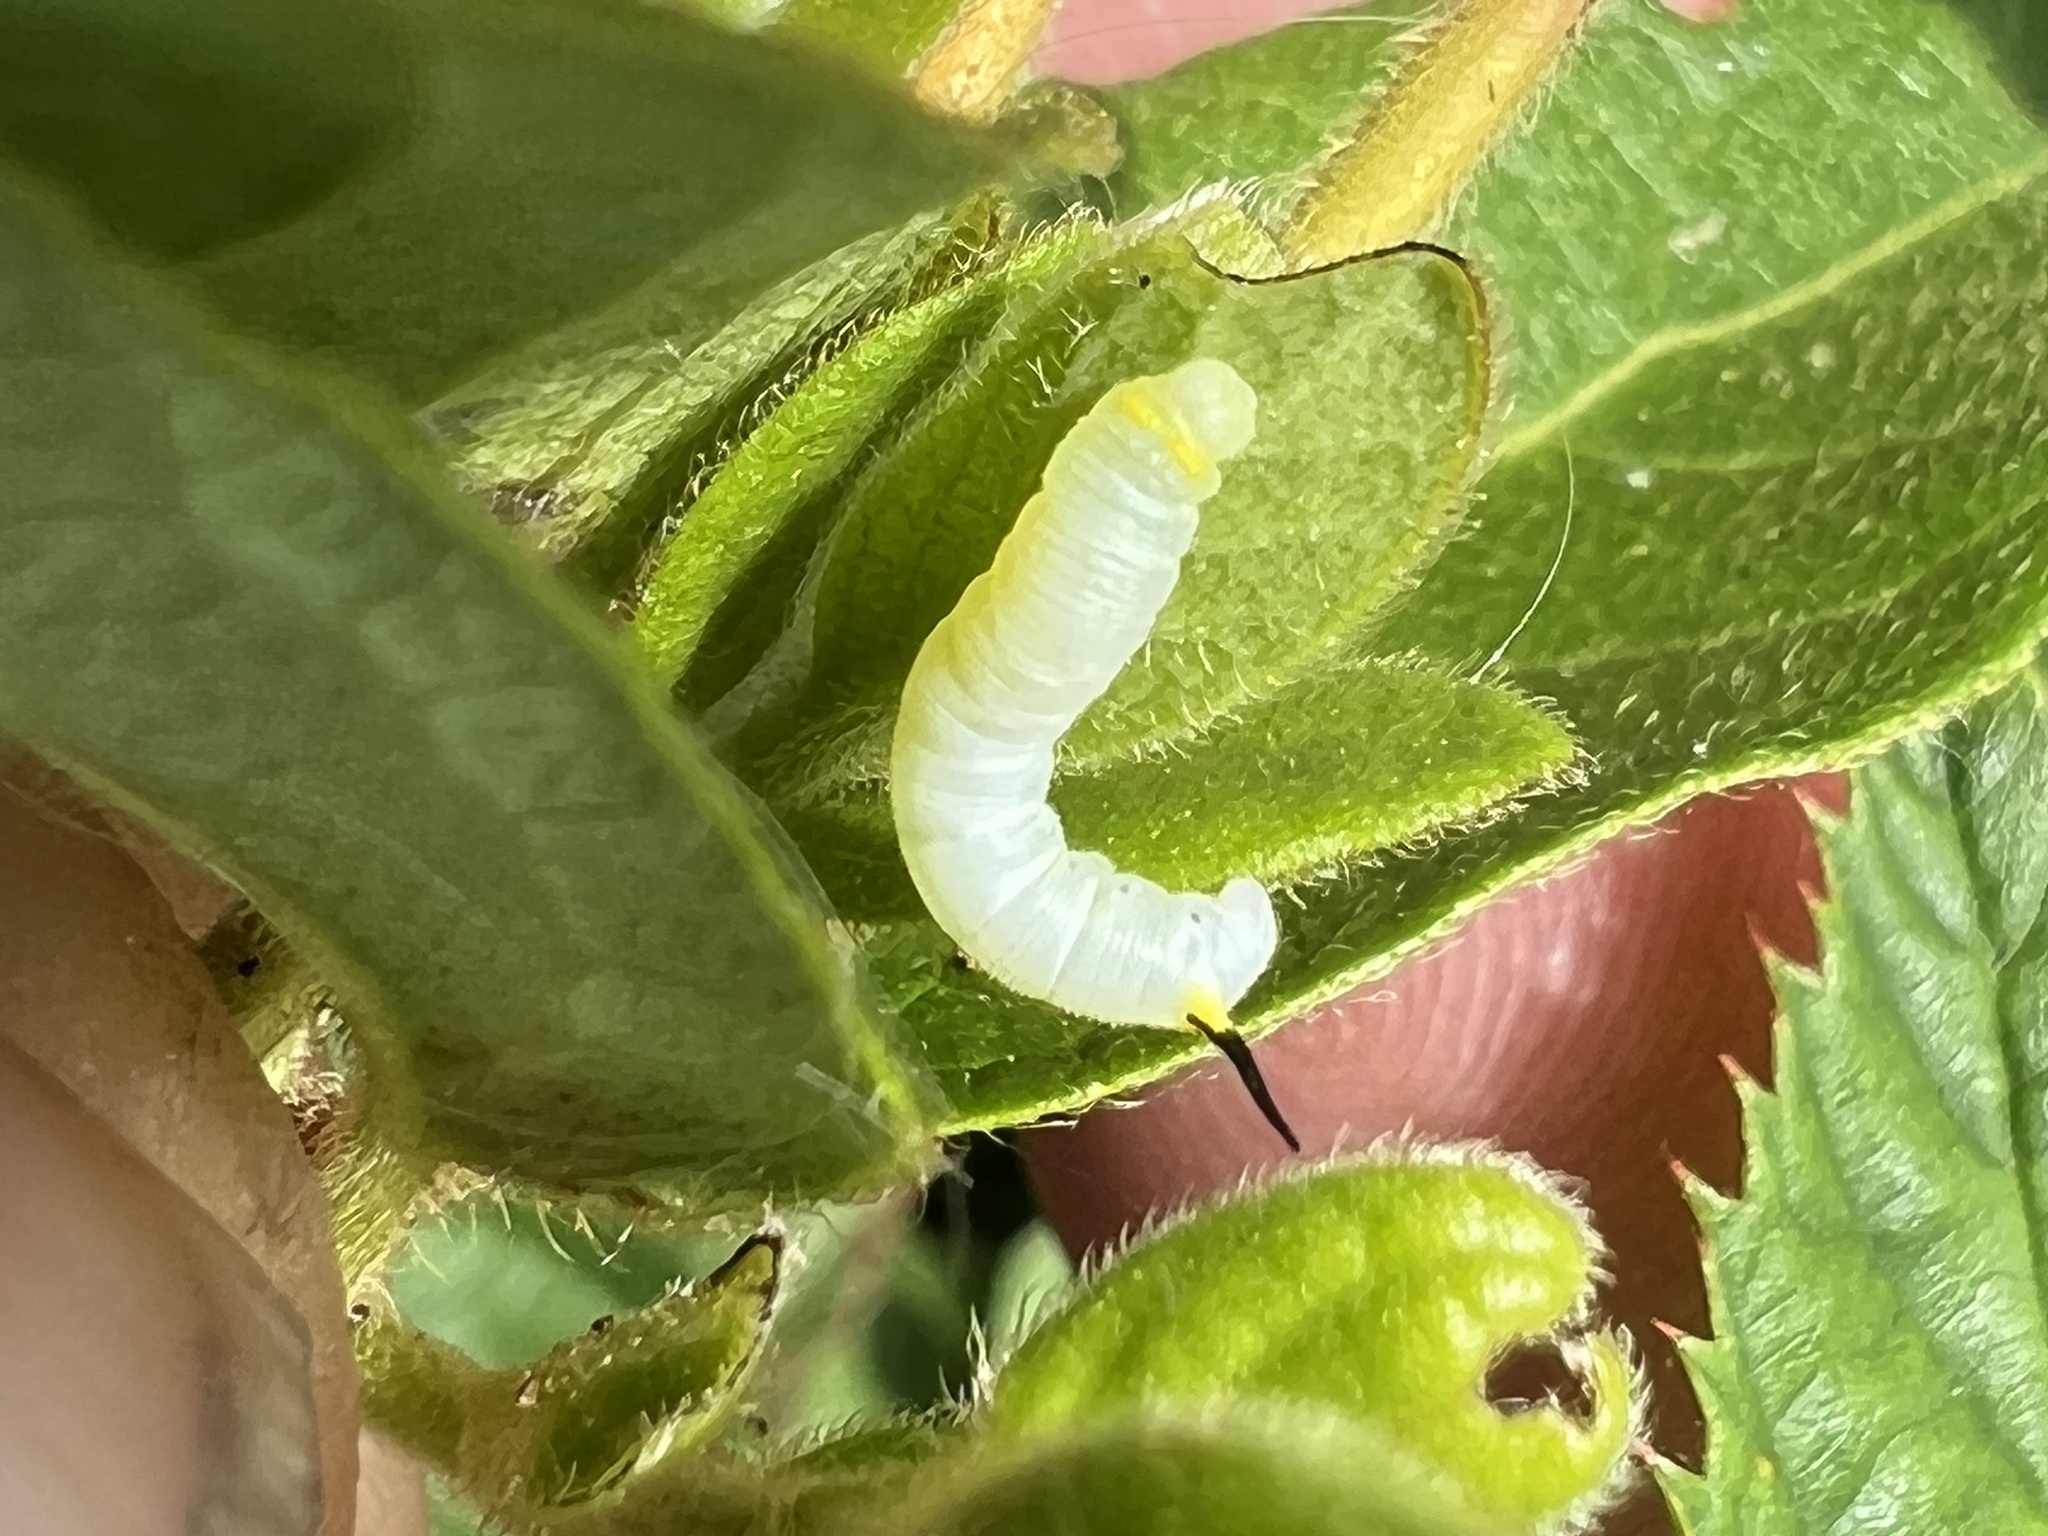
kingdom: Animalia
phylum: Arthropoda
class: Insecta
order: Lepidoptera
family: Sphingidae
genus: Hemaris
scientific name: Hemaris diffinis
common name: Bumblebee moth
